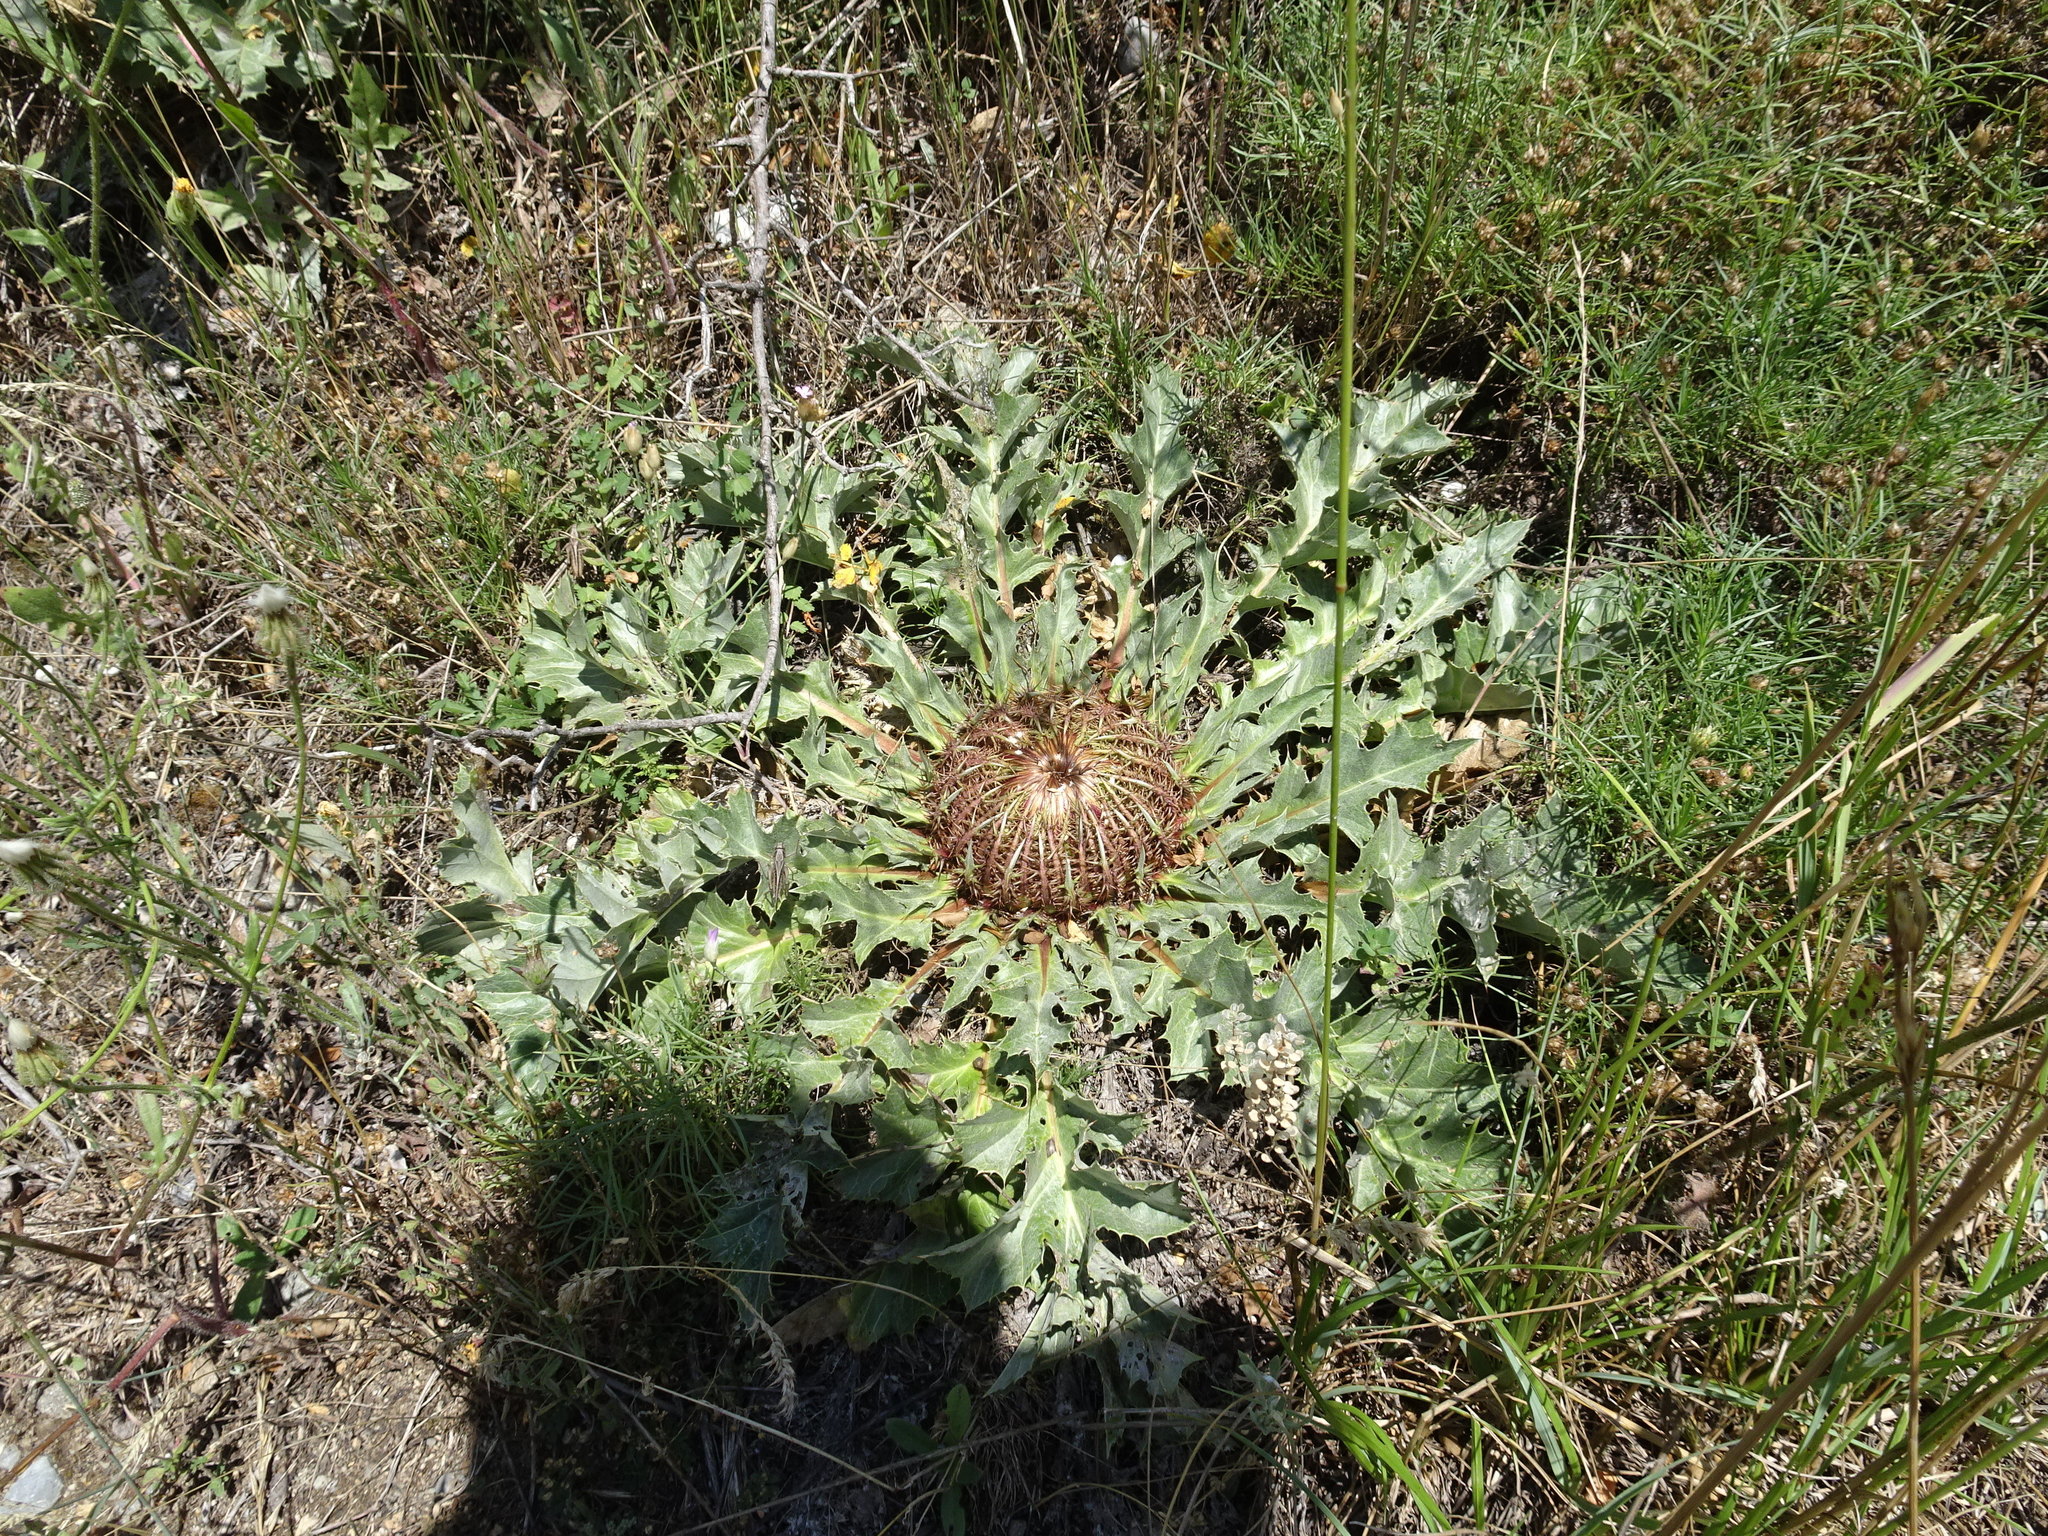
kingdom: Plantae
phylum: Tracheophyta
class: Magnoliopsida
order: Asterales
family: Asteraceae
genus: Carlina
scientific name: Carlina acanthifolia
